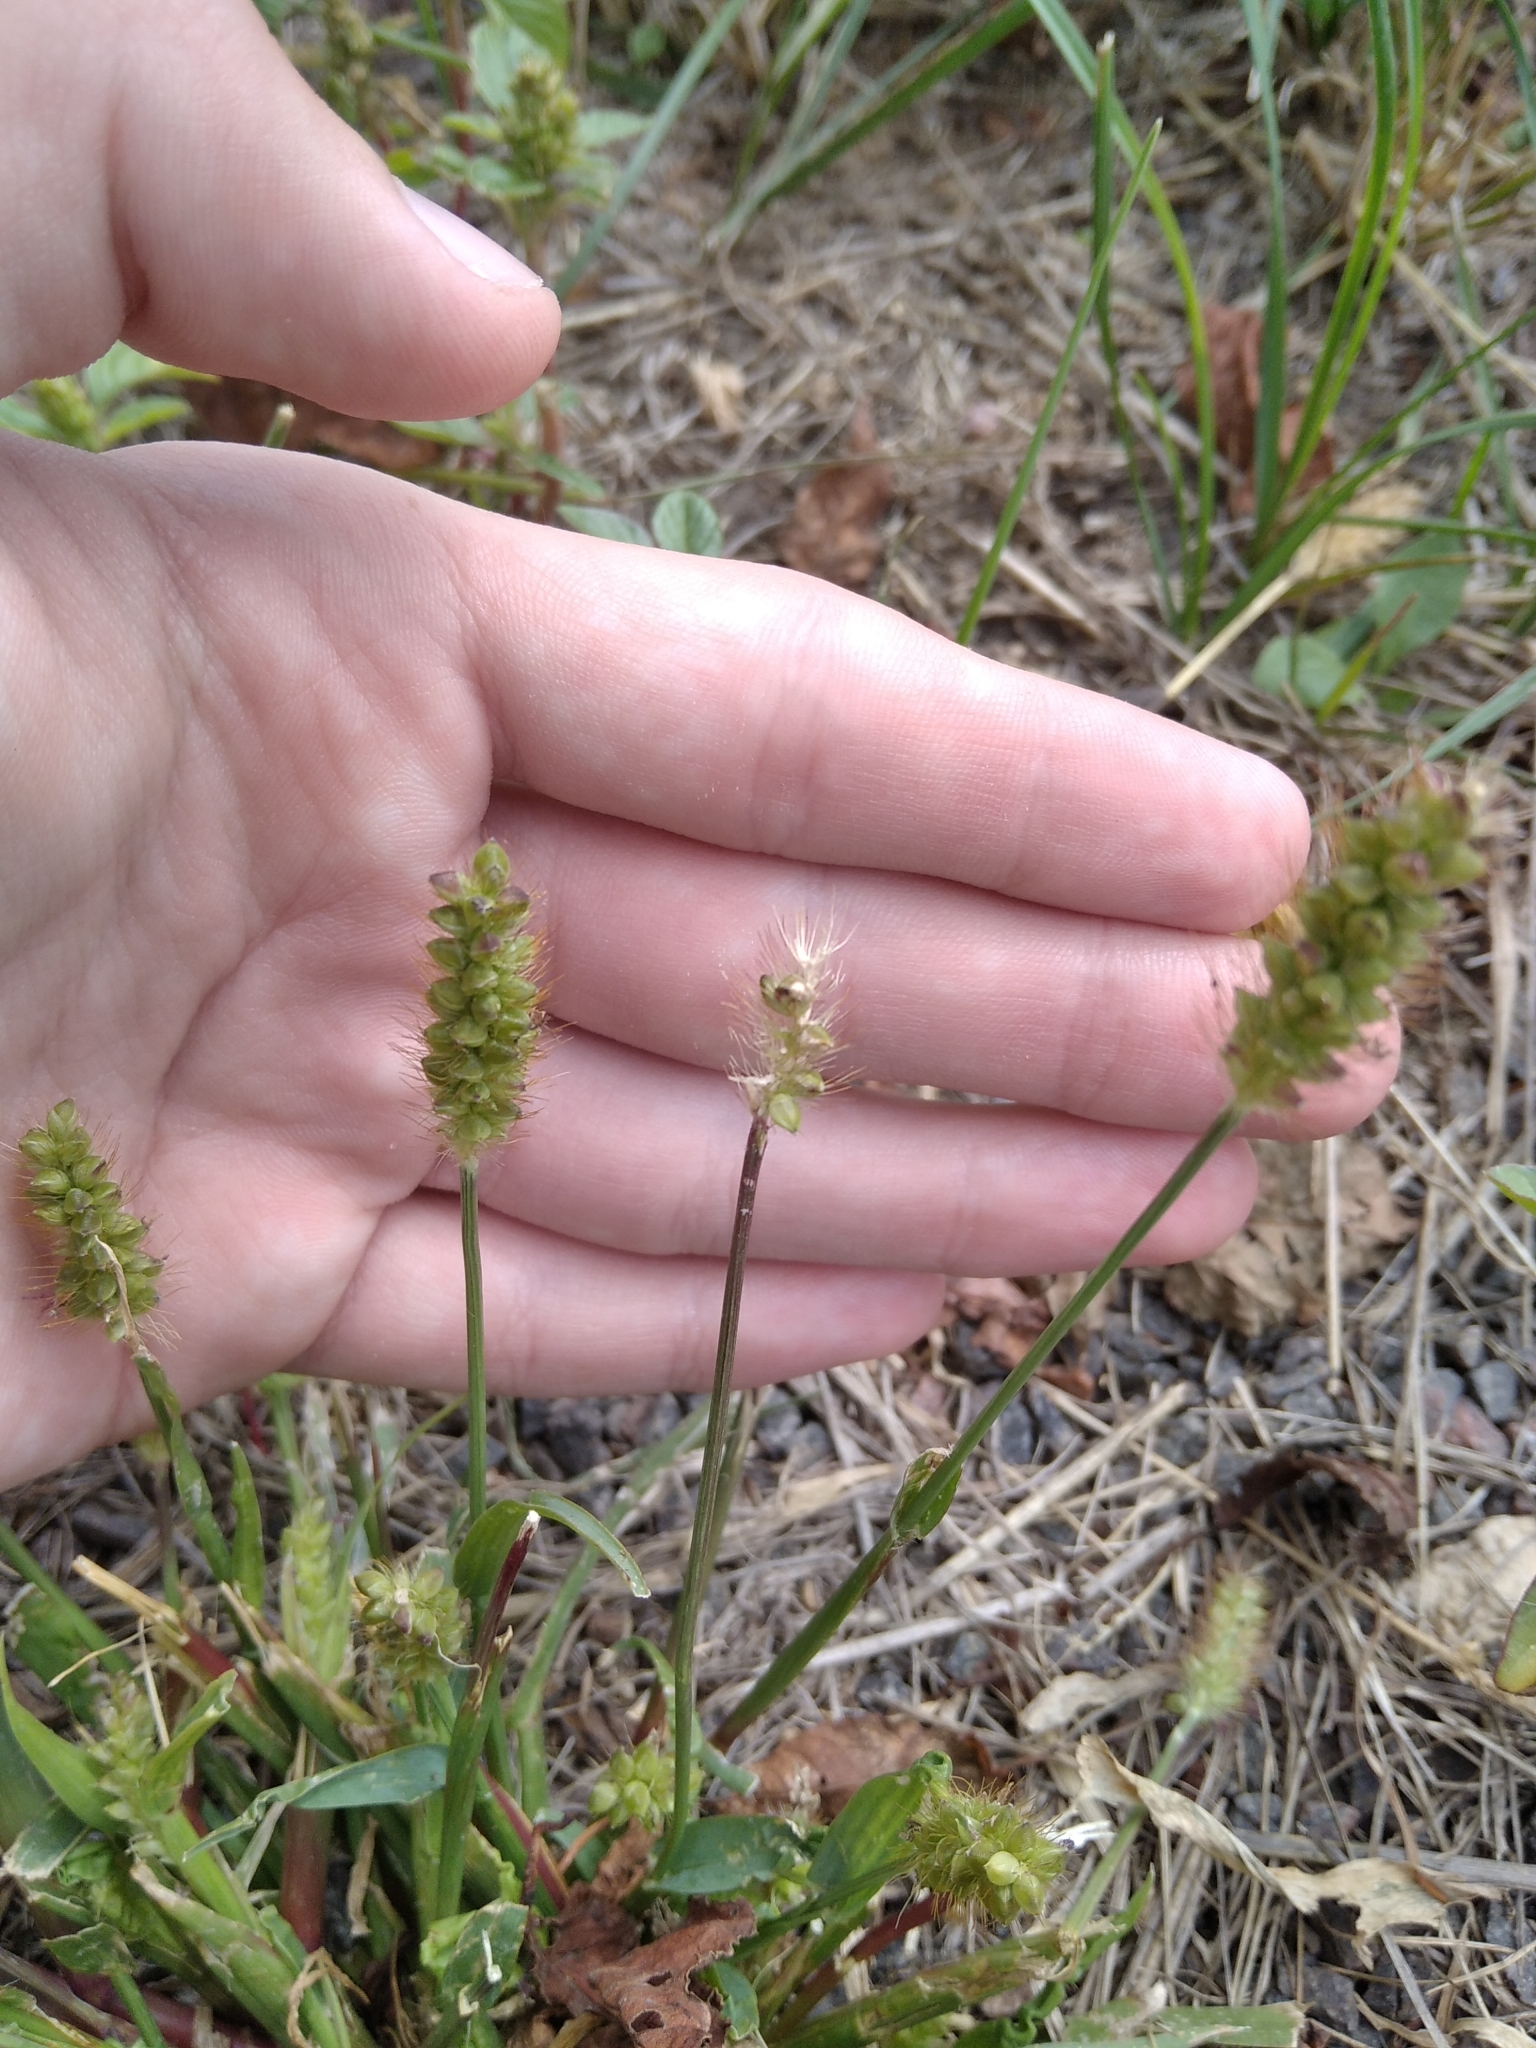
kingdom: Plantae
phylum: Tracheophyta
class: Liliopsida
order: Poales
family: Poaceae
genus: Setaria
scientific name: Setaria pumila
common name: Yellow bristle-grass
